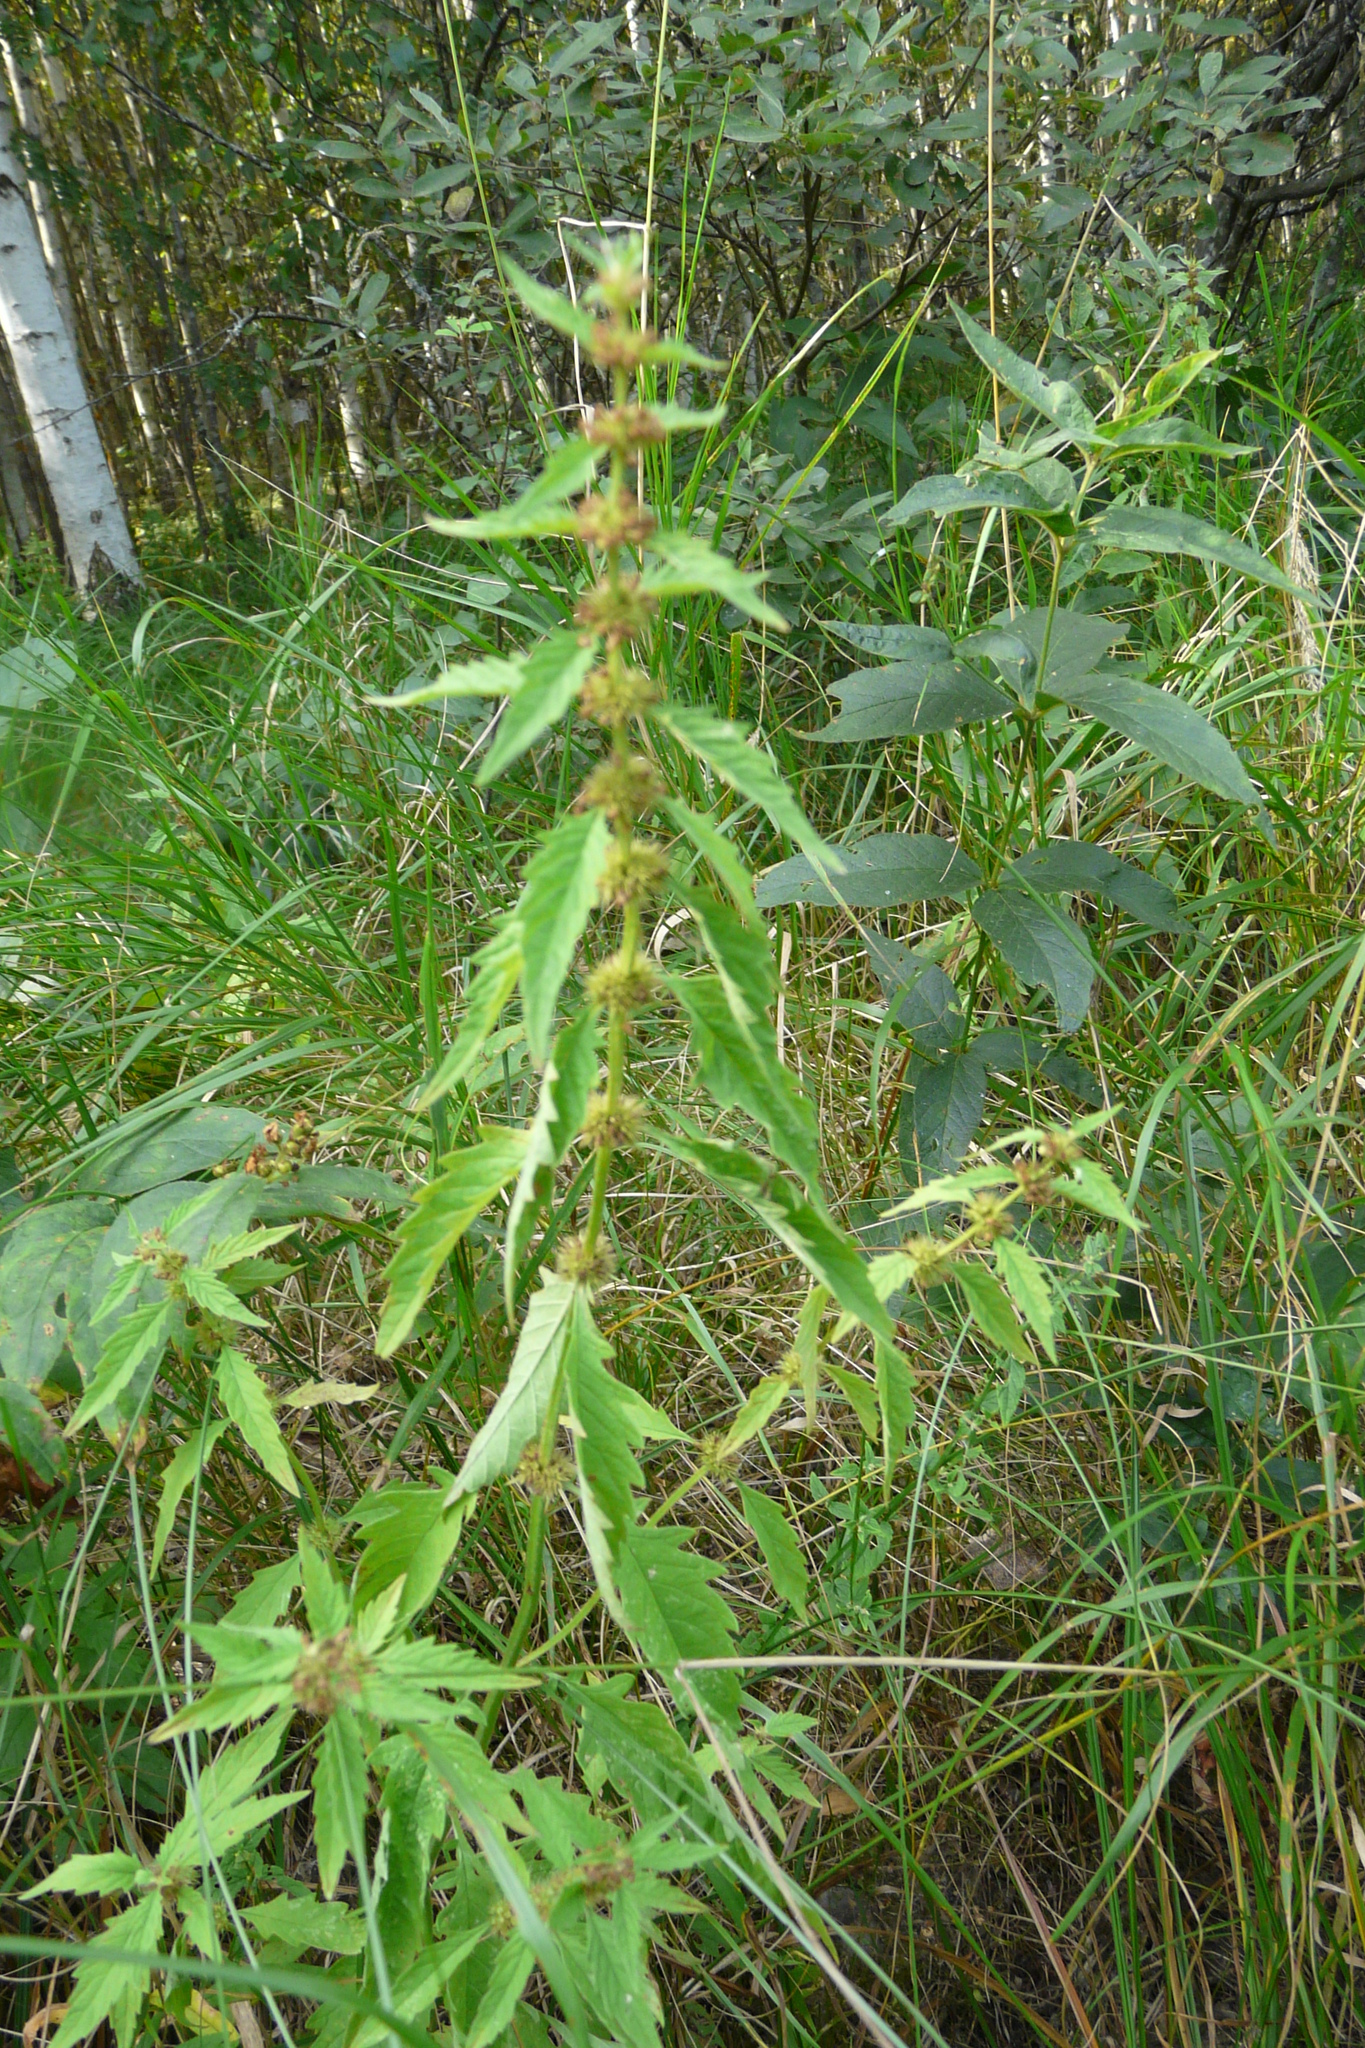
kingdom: Plantae
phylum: Tracheophyta
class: Magnoliopsida
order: Lamiales
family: Lamiaceae
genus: Lycopus
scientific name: Lycopus europaeus
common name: European bugleweed
